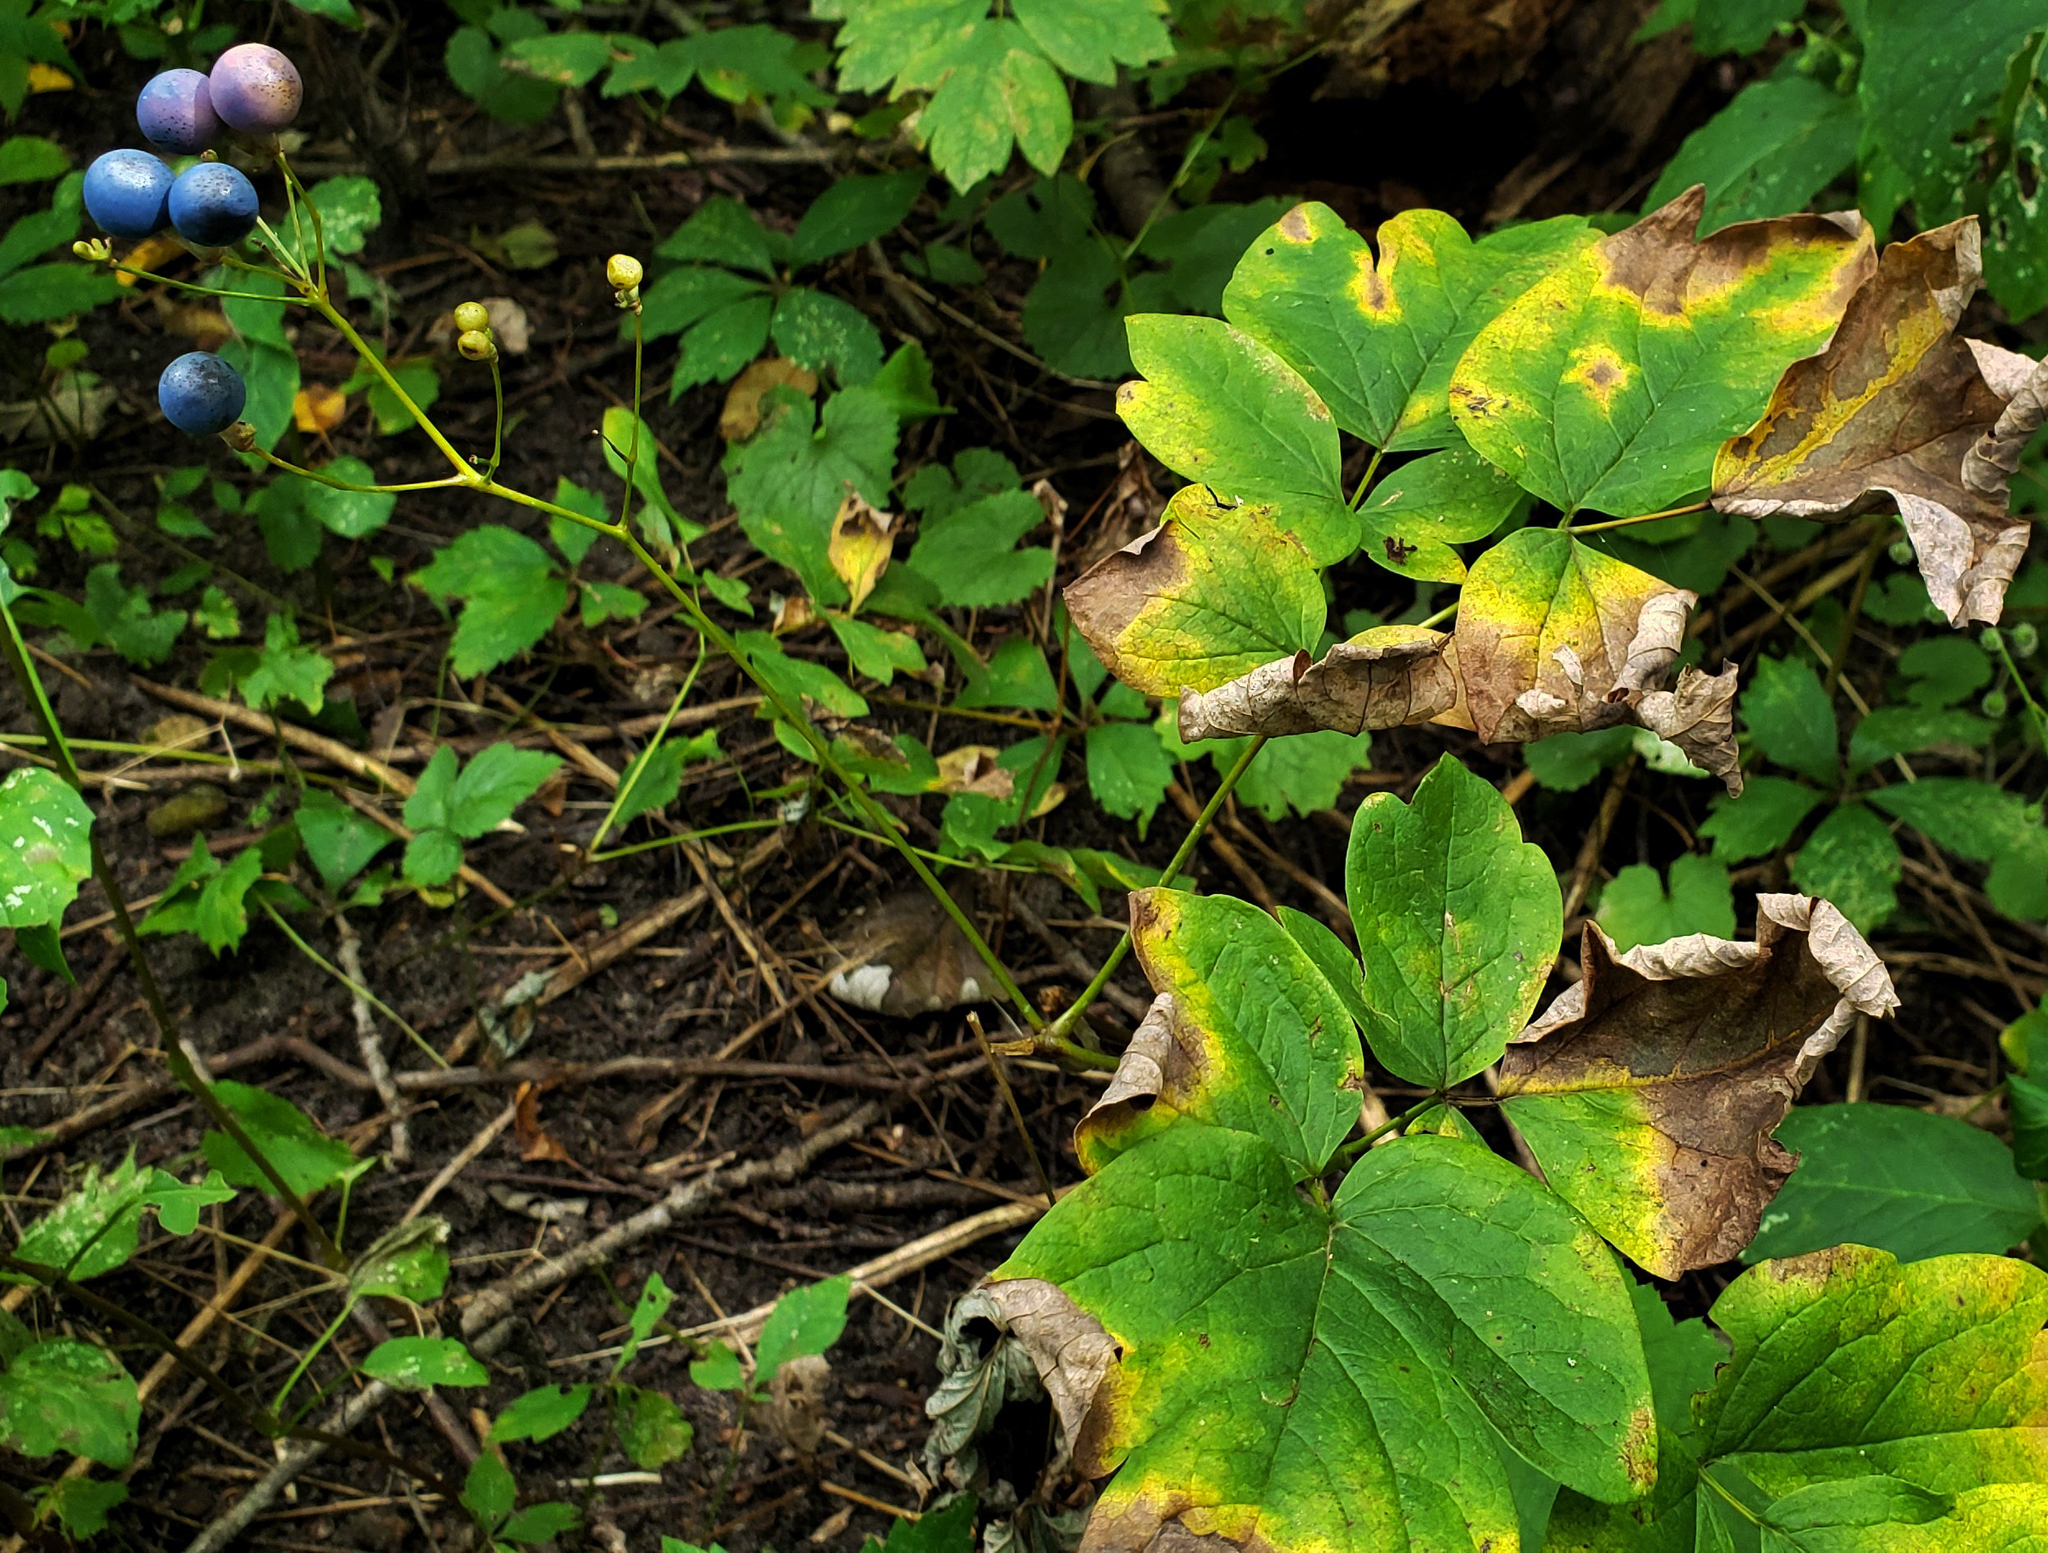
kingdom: Plantae
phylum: Tracheophyta
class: Magnoliopsida
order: Ranunculales
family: Berberidaceae
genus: Caulophyllum
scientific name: Caulophyllum thalictroides
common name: Blue cohosh
